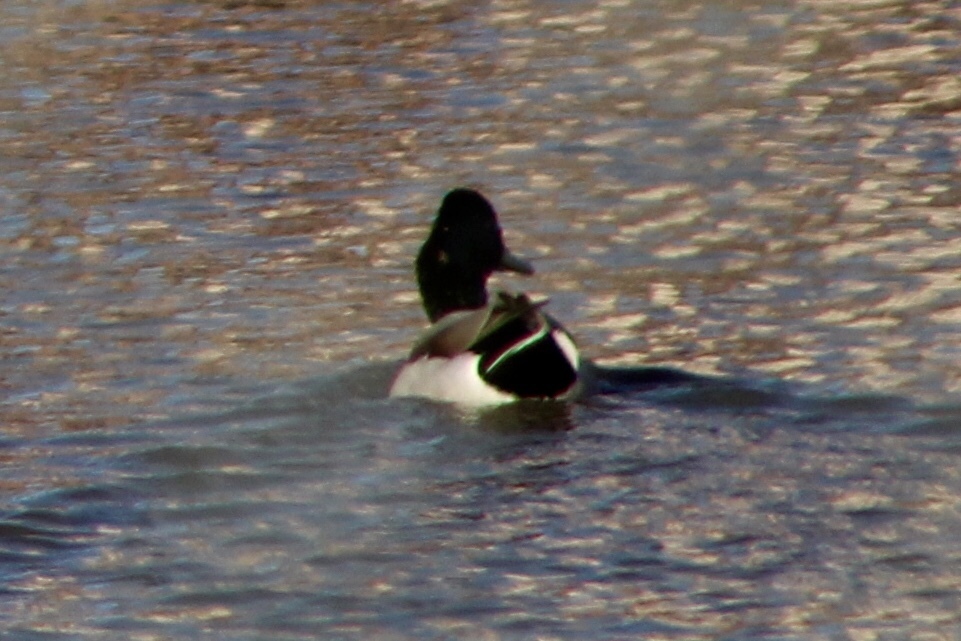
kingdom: Animalia
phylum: Chordata
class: Aves
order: Anseriformes
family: Anatidae
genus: Anas
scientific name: Anas platyrhynchos
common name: Mallard
